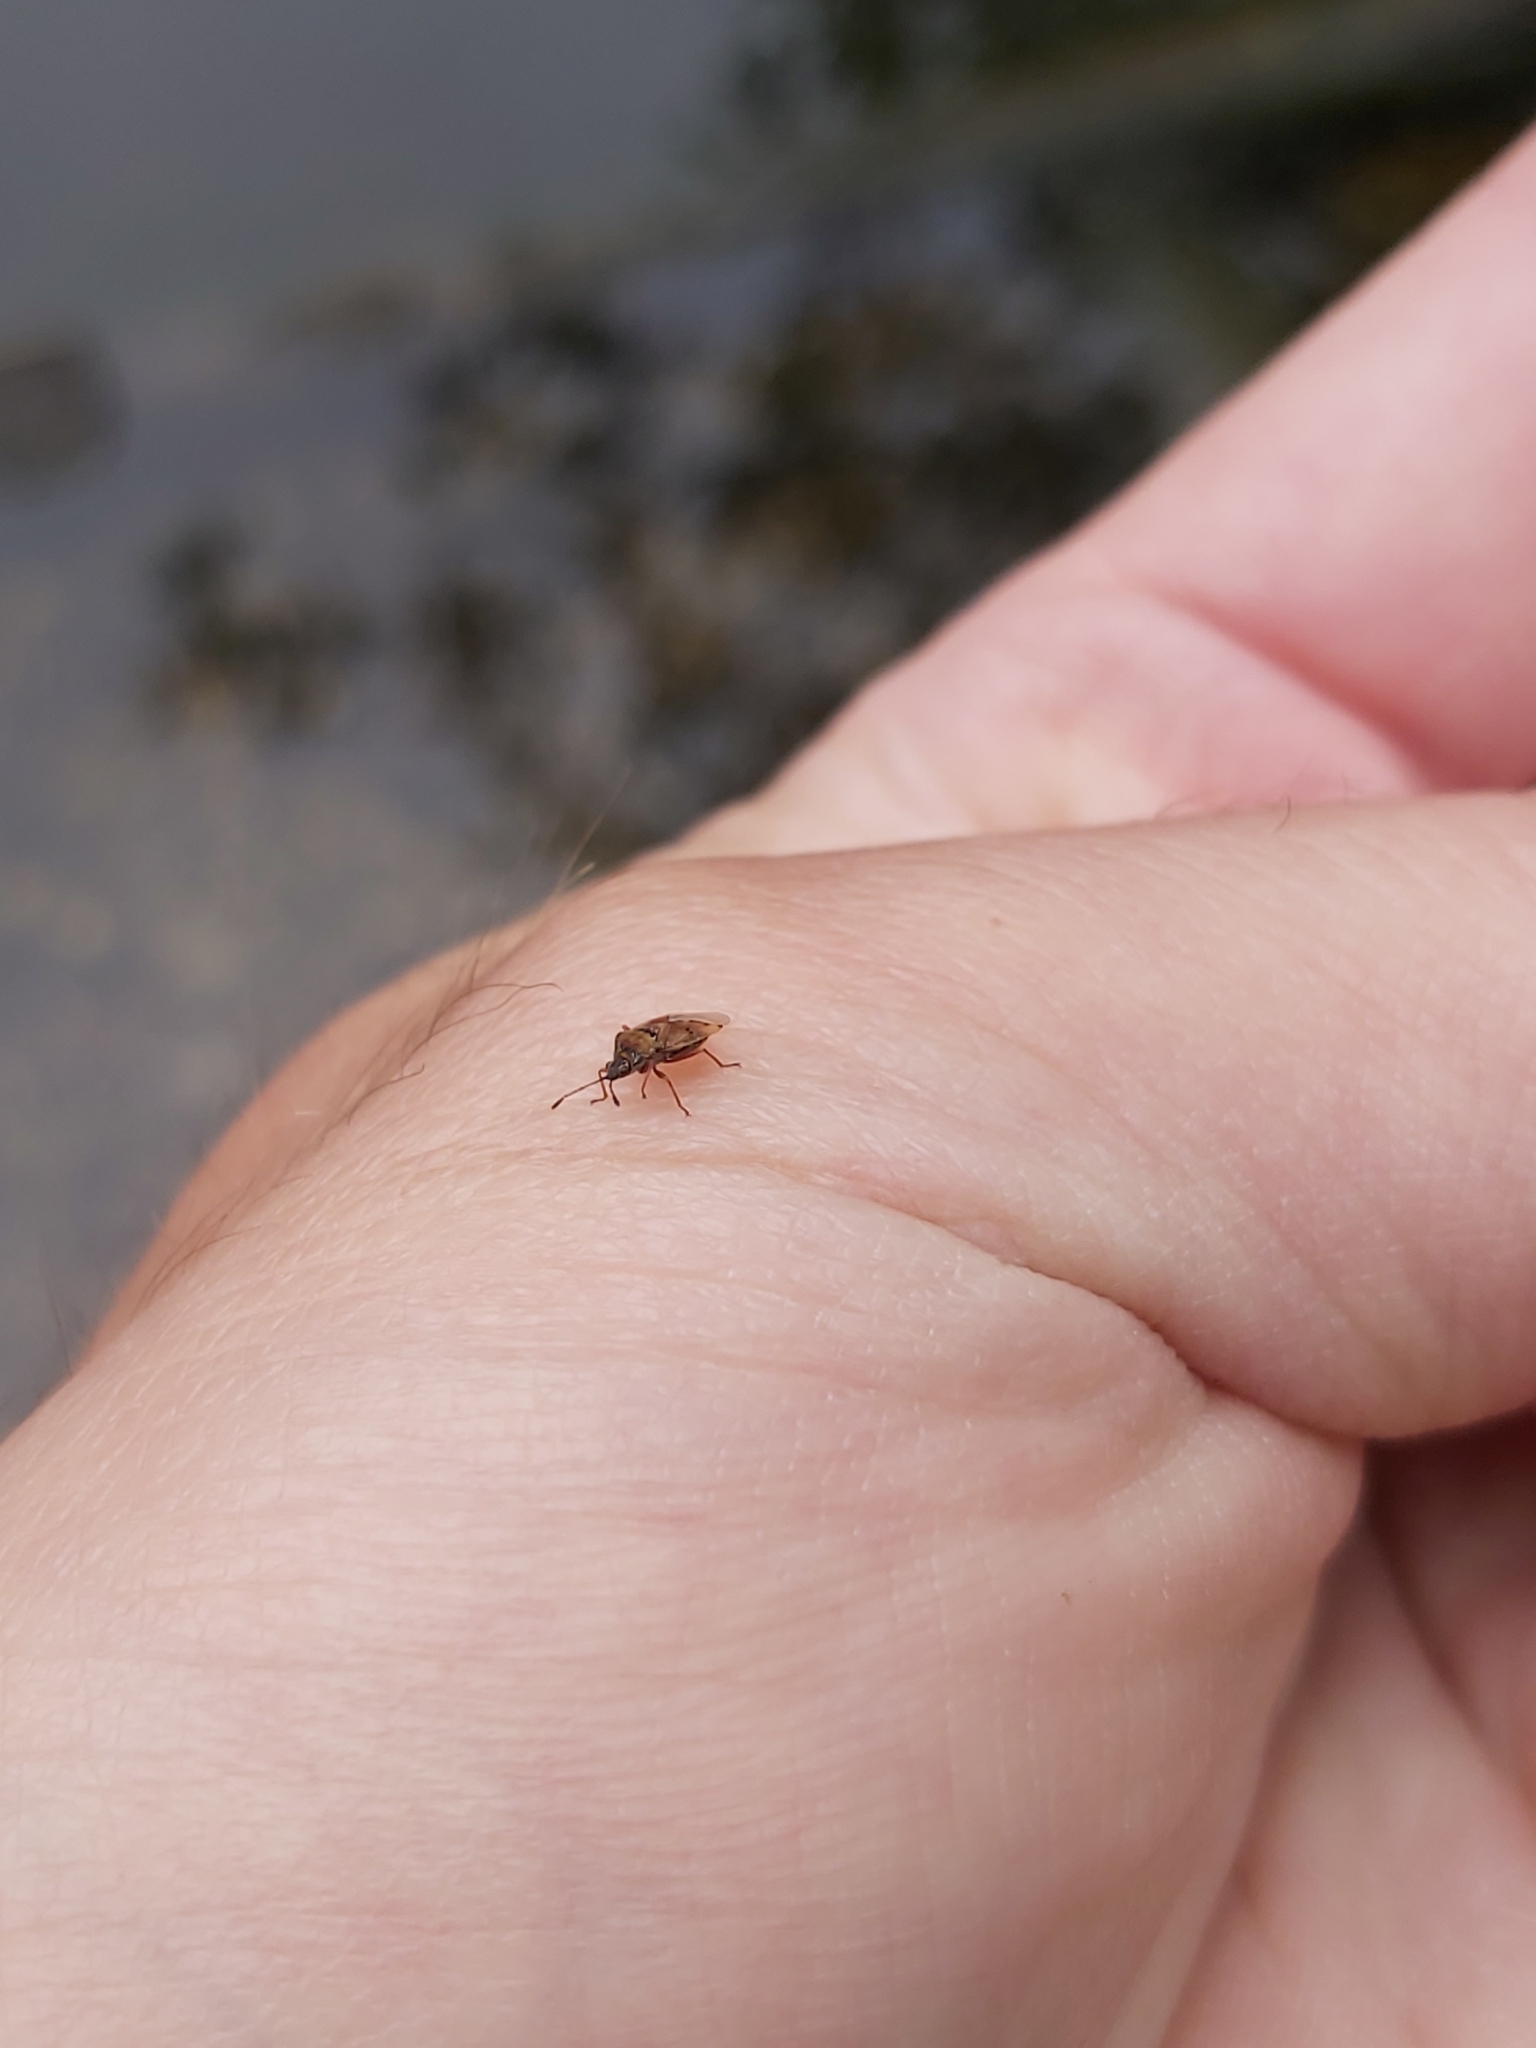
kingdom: Animalia
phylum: Arthropoda
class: Insecta
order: Hemiptera
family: Lygaeidae
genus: Kleidocerys
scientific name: Kleidocerys resedae
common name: Birch catkin bug
